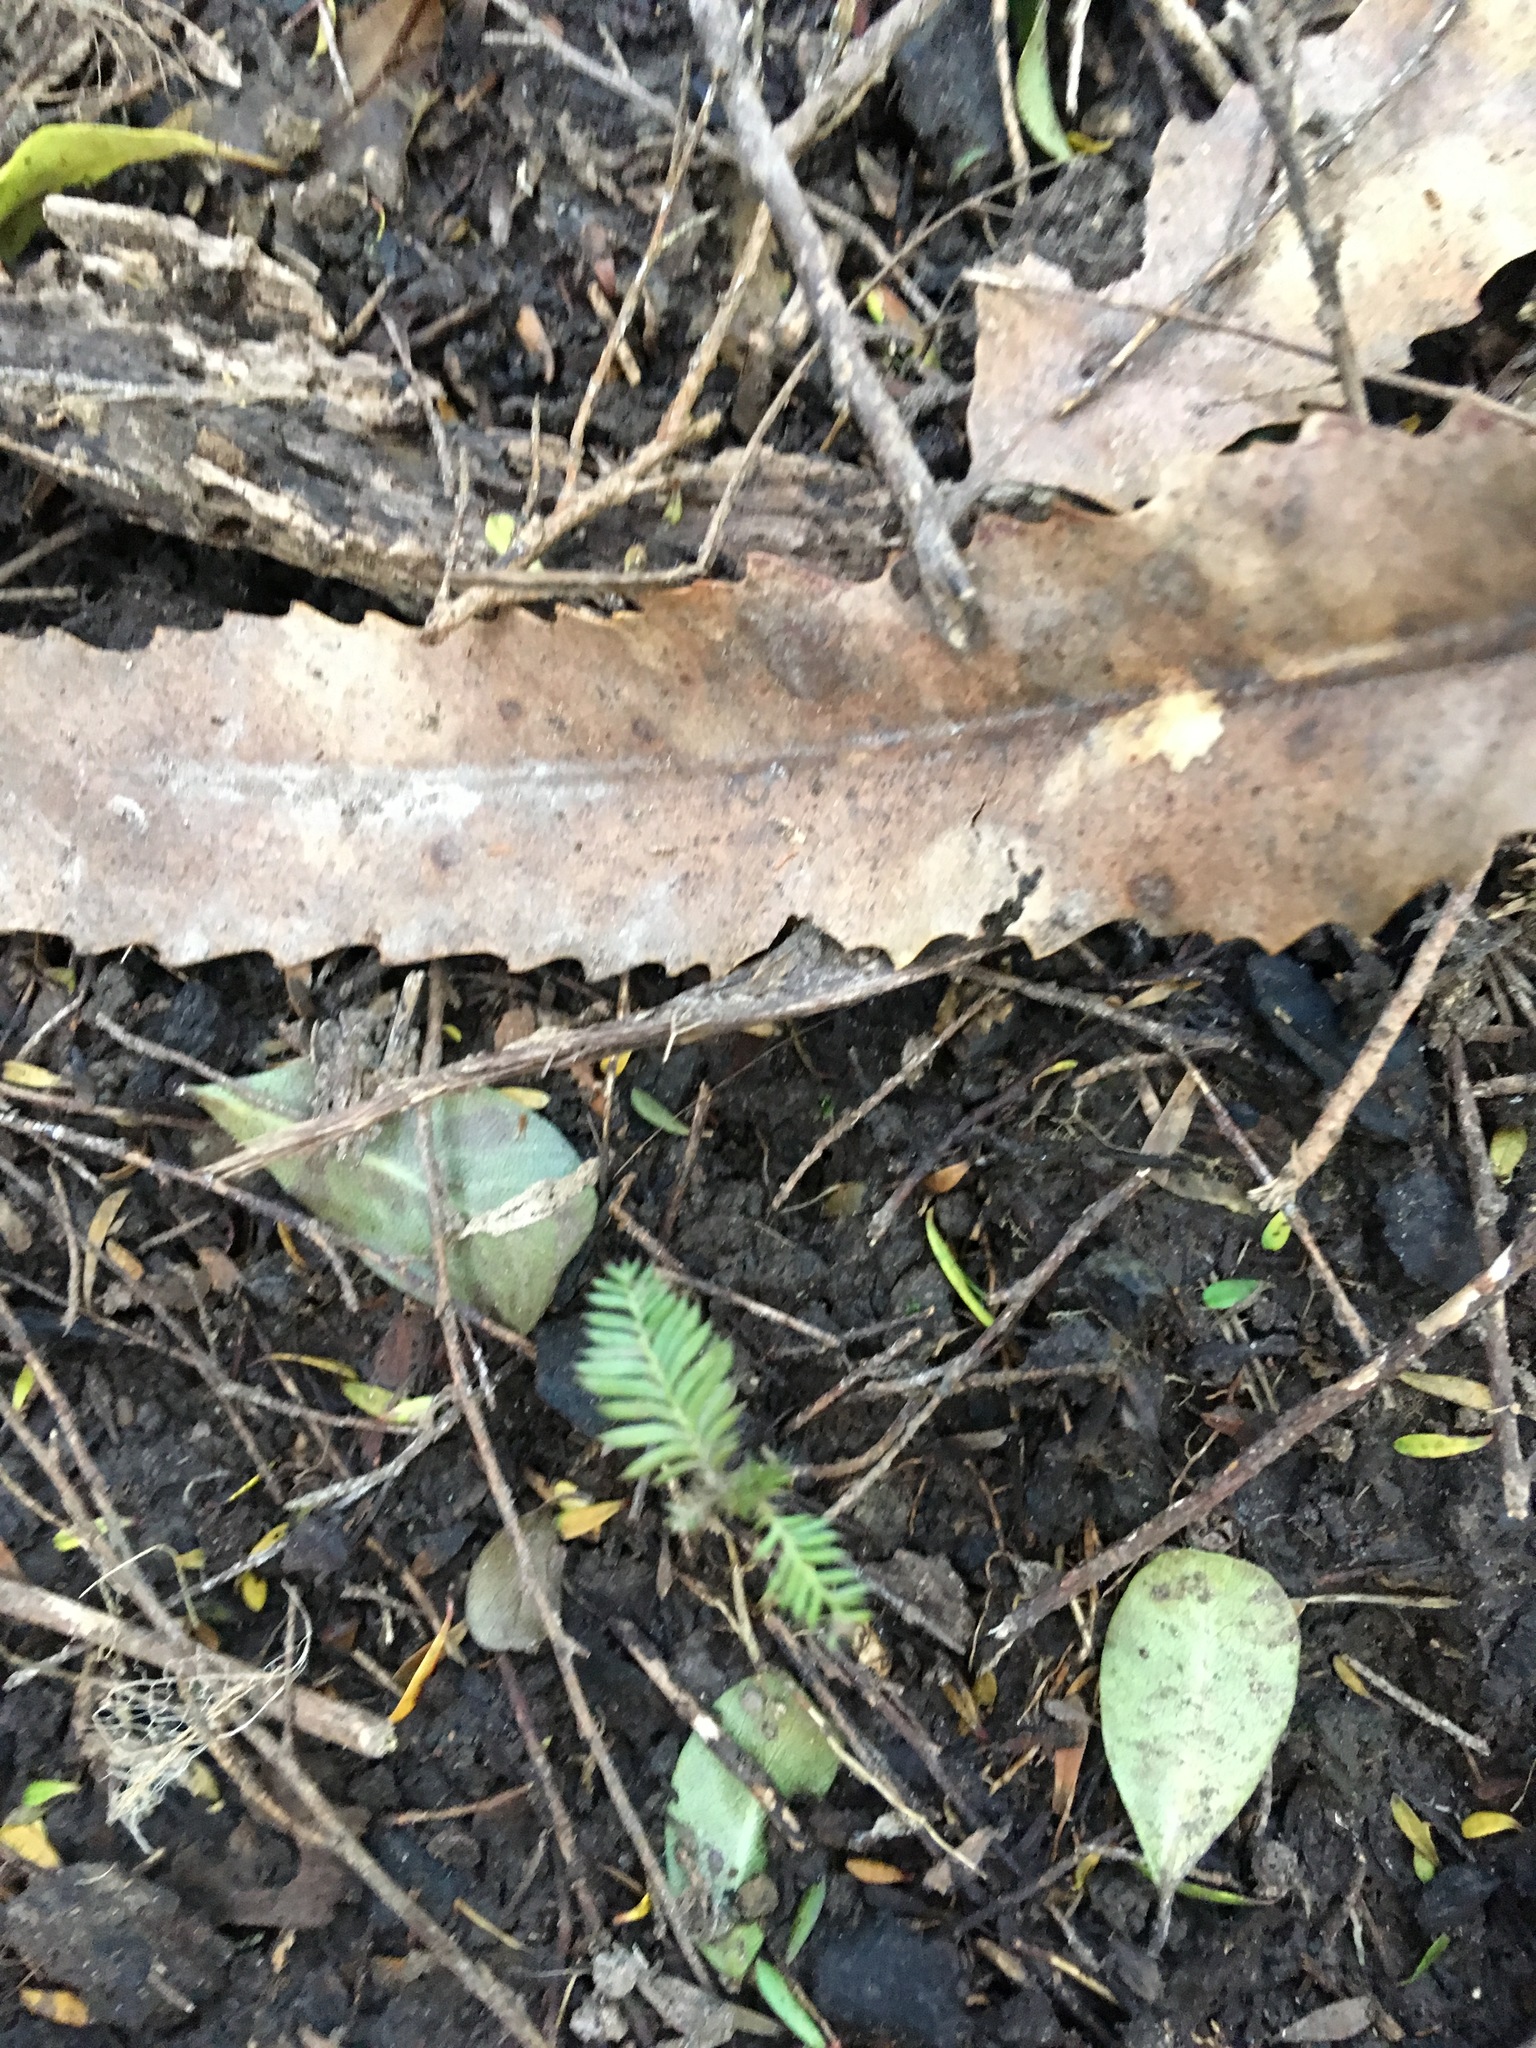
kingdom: Plantae
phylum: Tracheophyta
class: Pinopsida
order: Pinales
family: Podocarpaceae
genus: Dacrycarpus
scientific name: Dacrycarpus dacrydioides
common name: White pine
